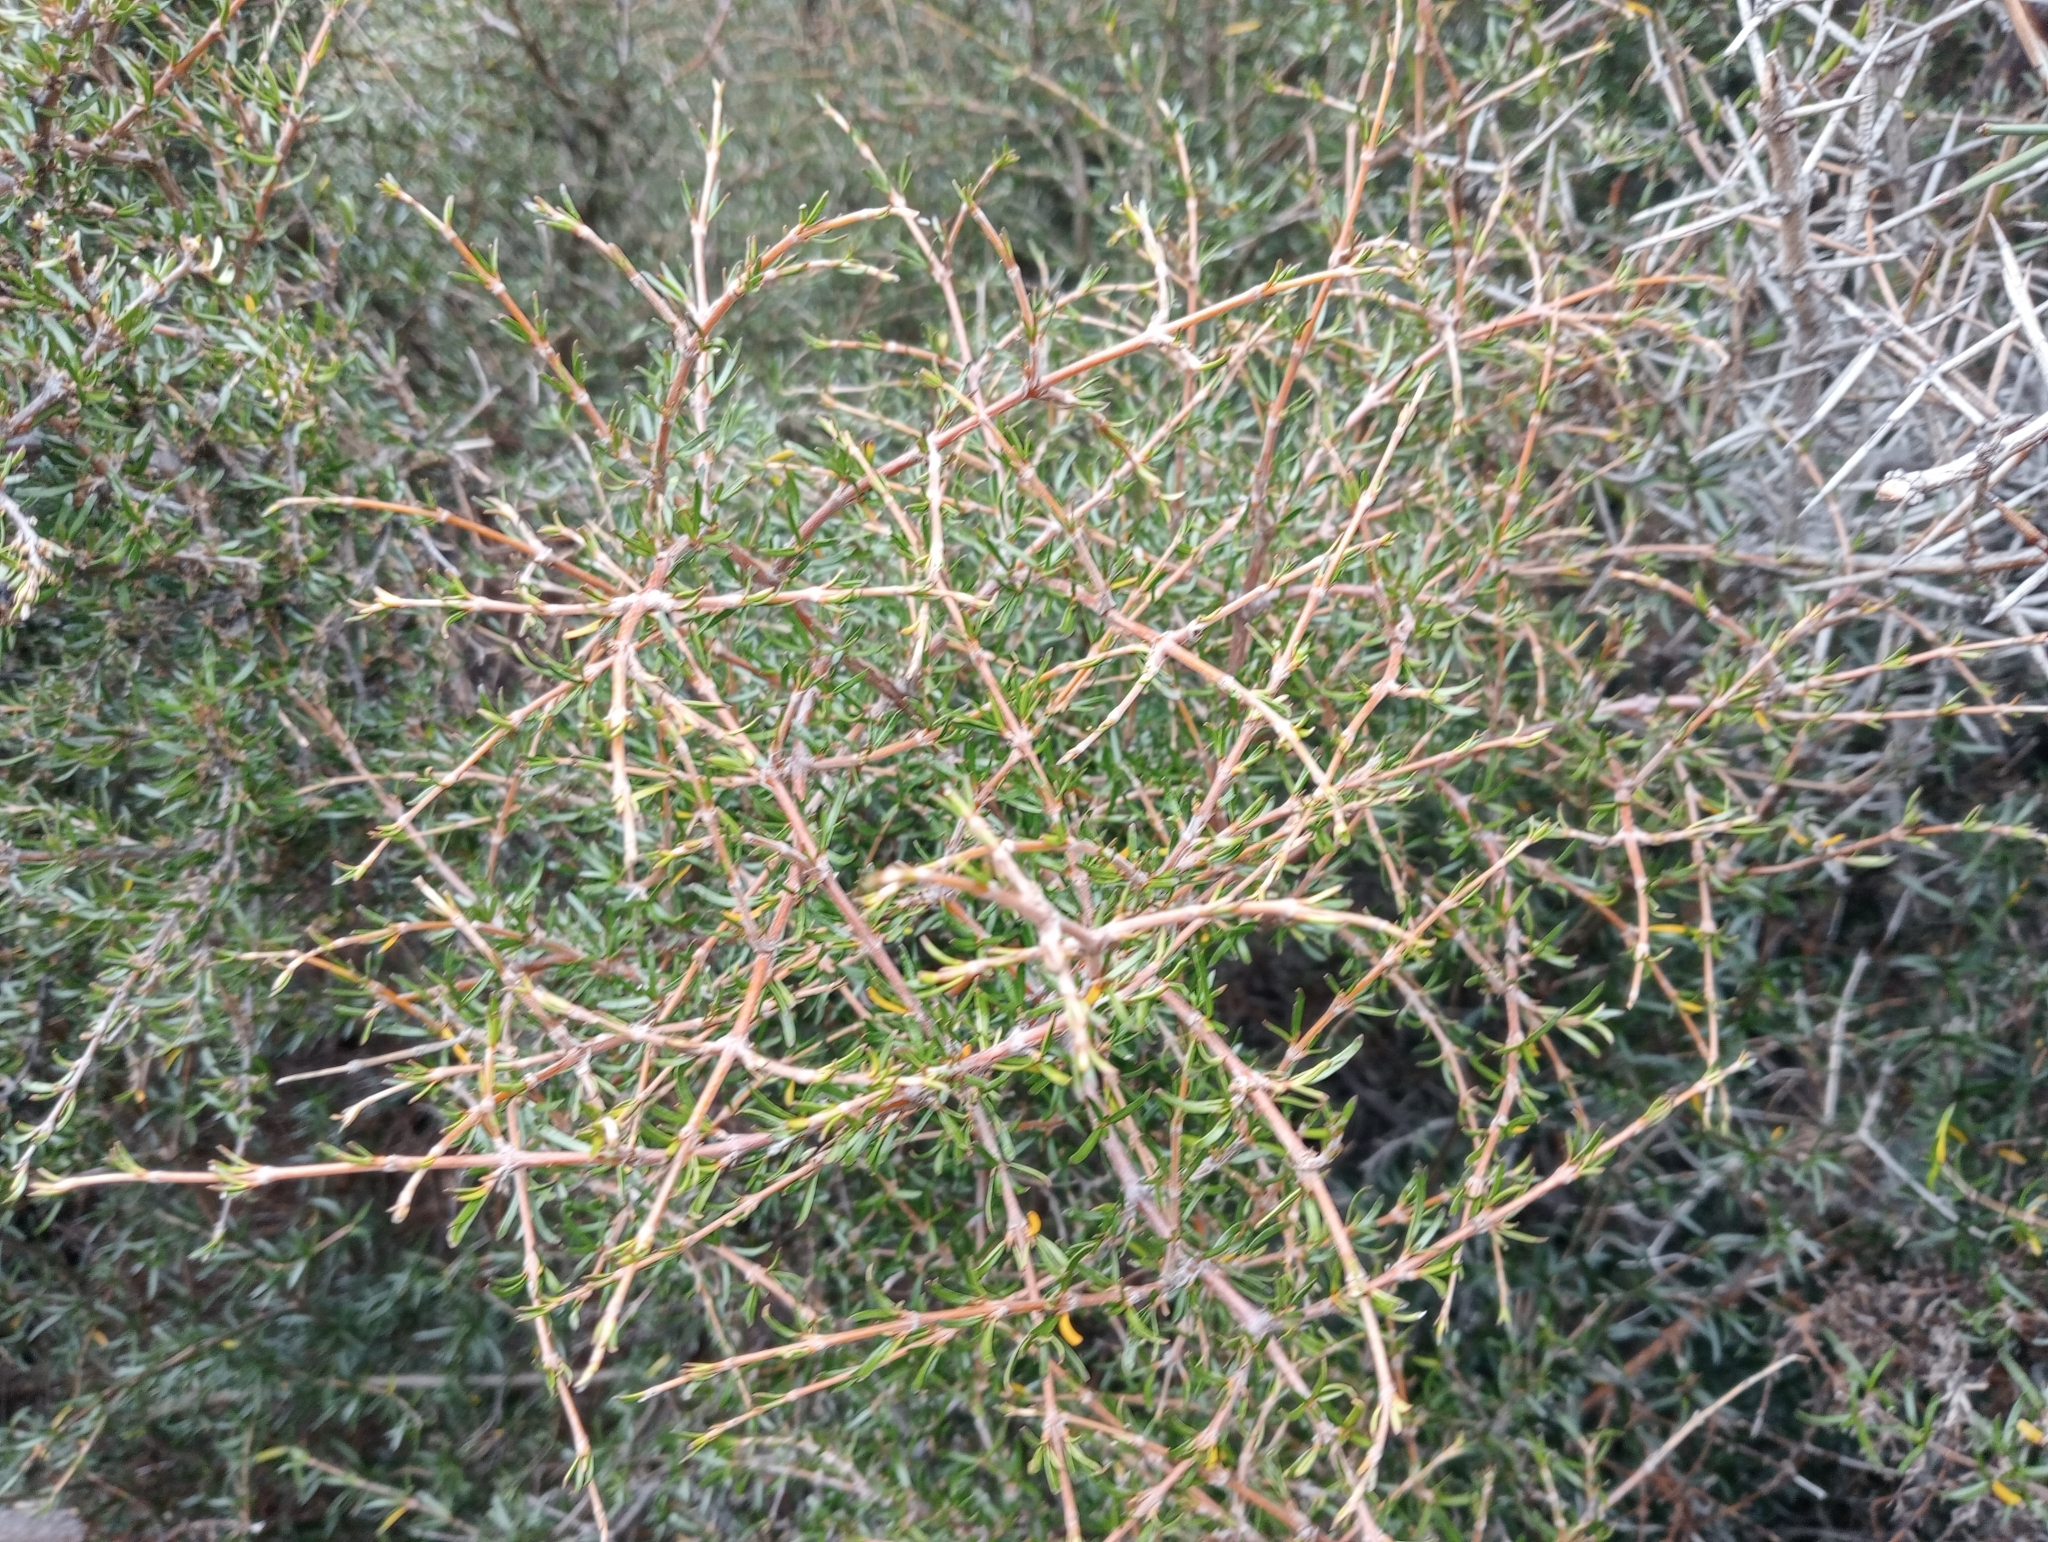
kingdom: Plantae
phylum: Tracheophyta
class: Magnoliopsida
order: Gentianales
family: Rubiaceae
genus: Coprosma
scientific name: Coprosma rugosa
